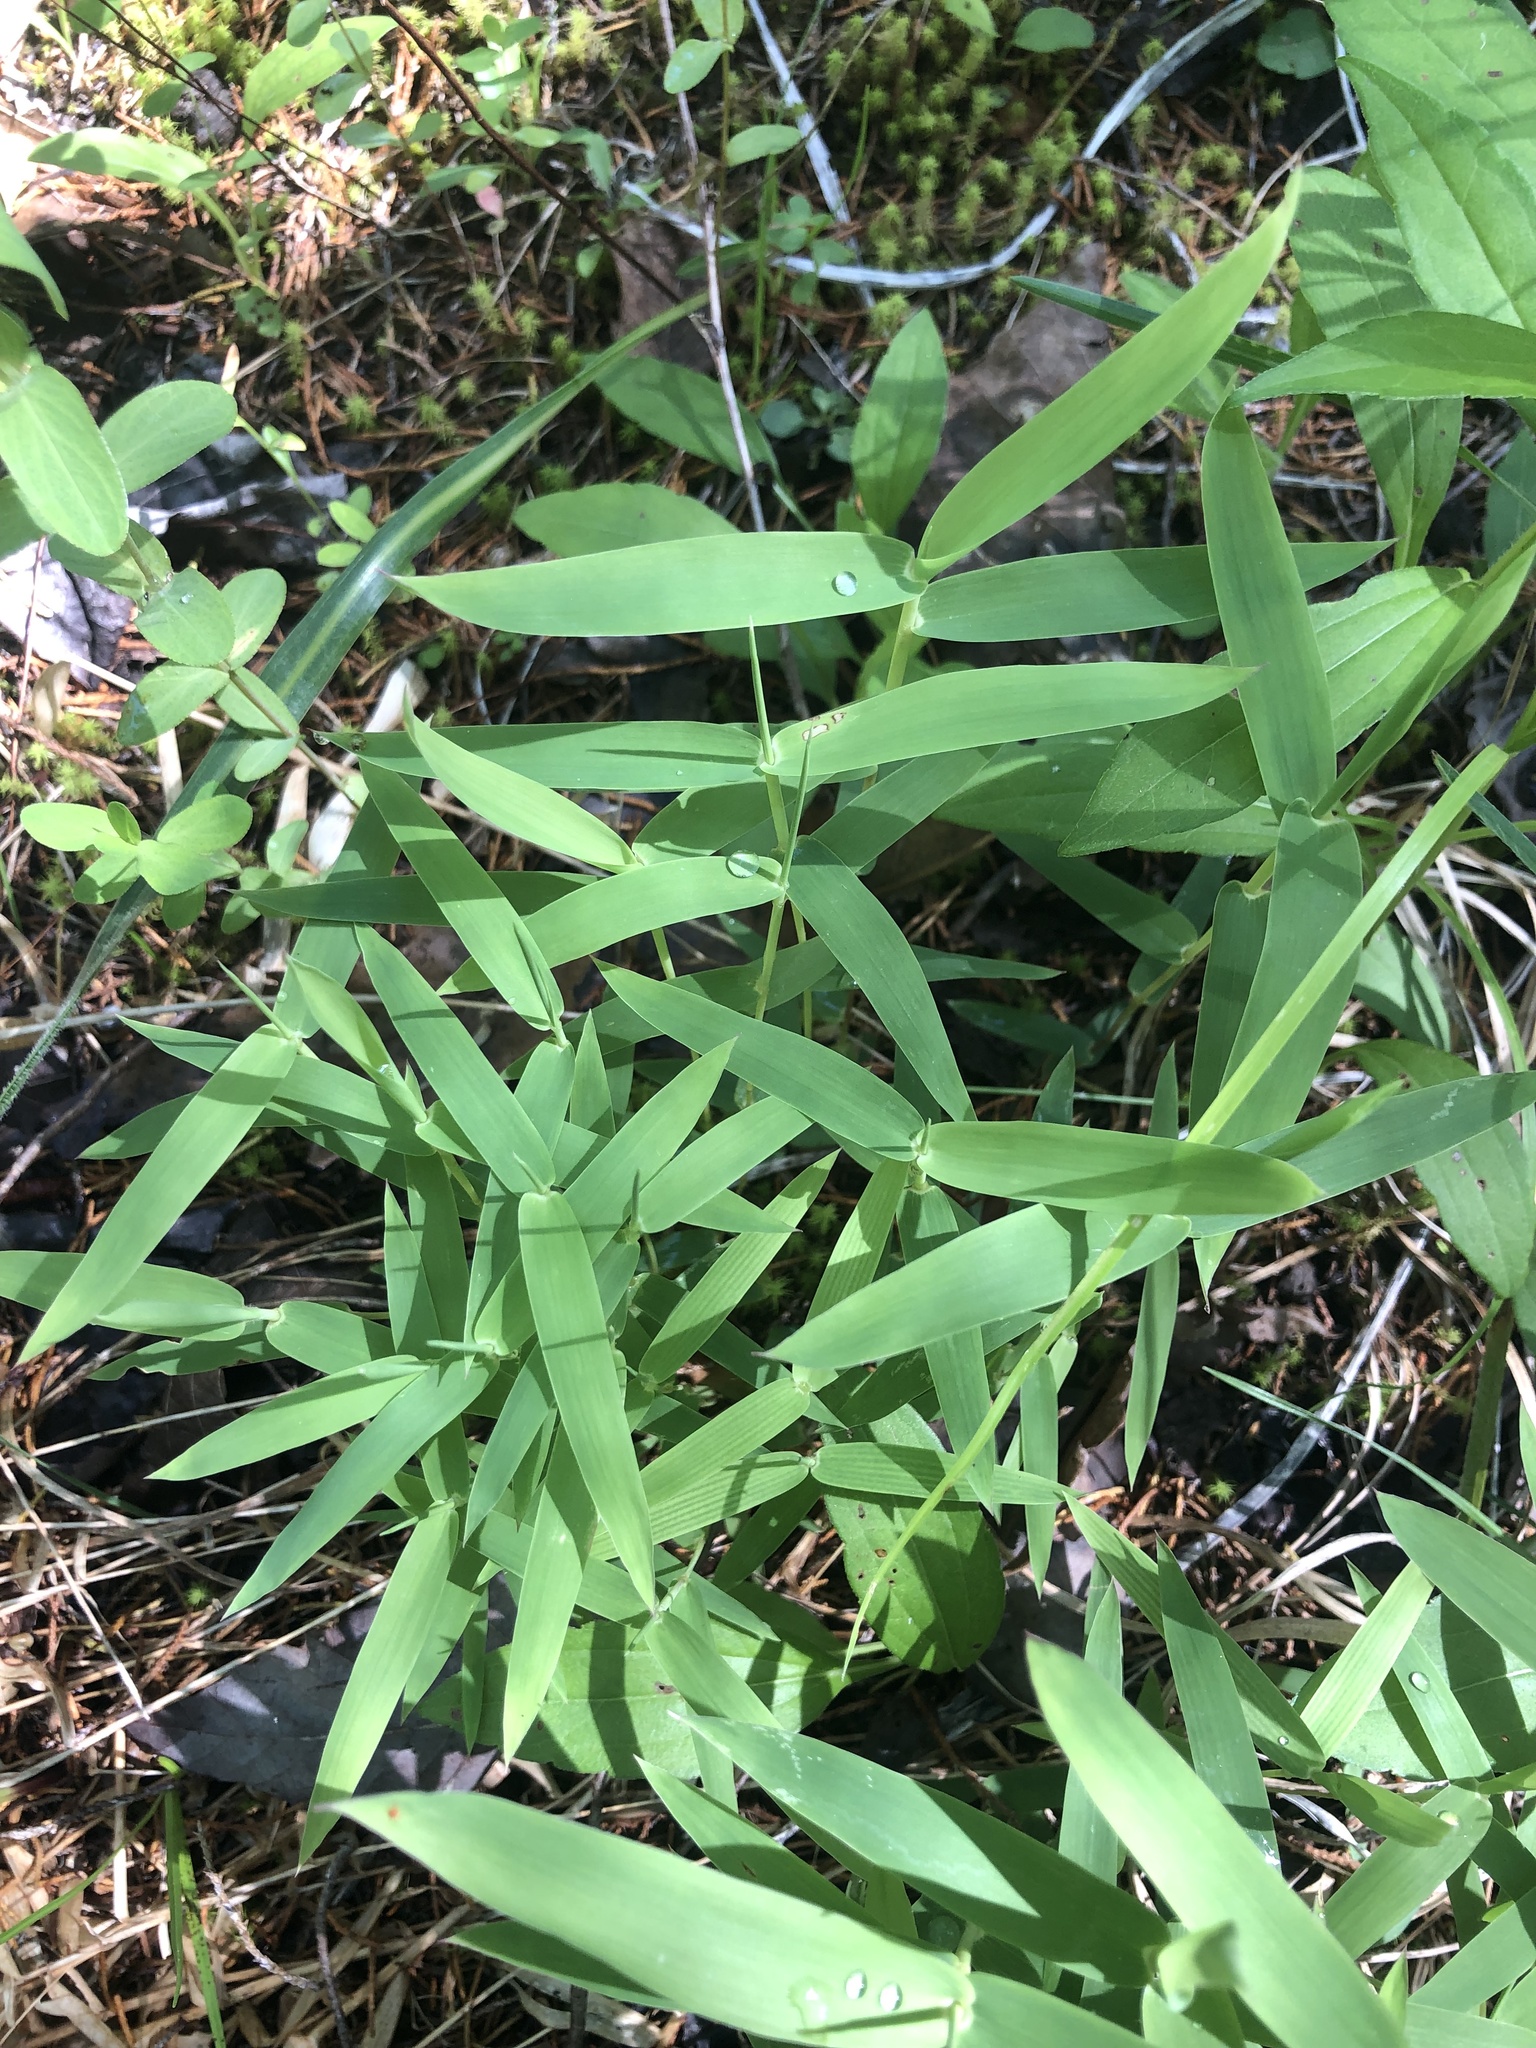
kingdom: Plantae
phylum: Tracheophyta
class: Liliopsida
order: Poales
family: Poaceae
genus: Gymnopogon
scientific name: Gymnopogon ambiguus
